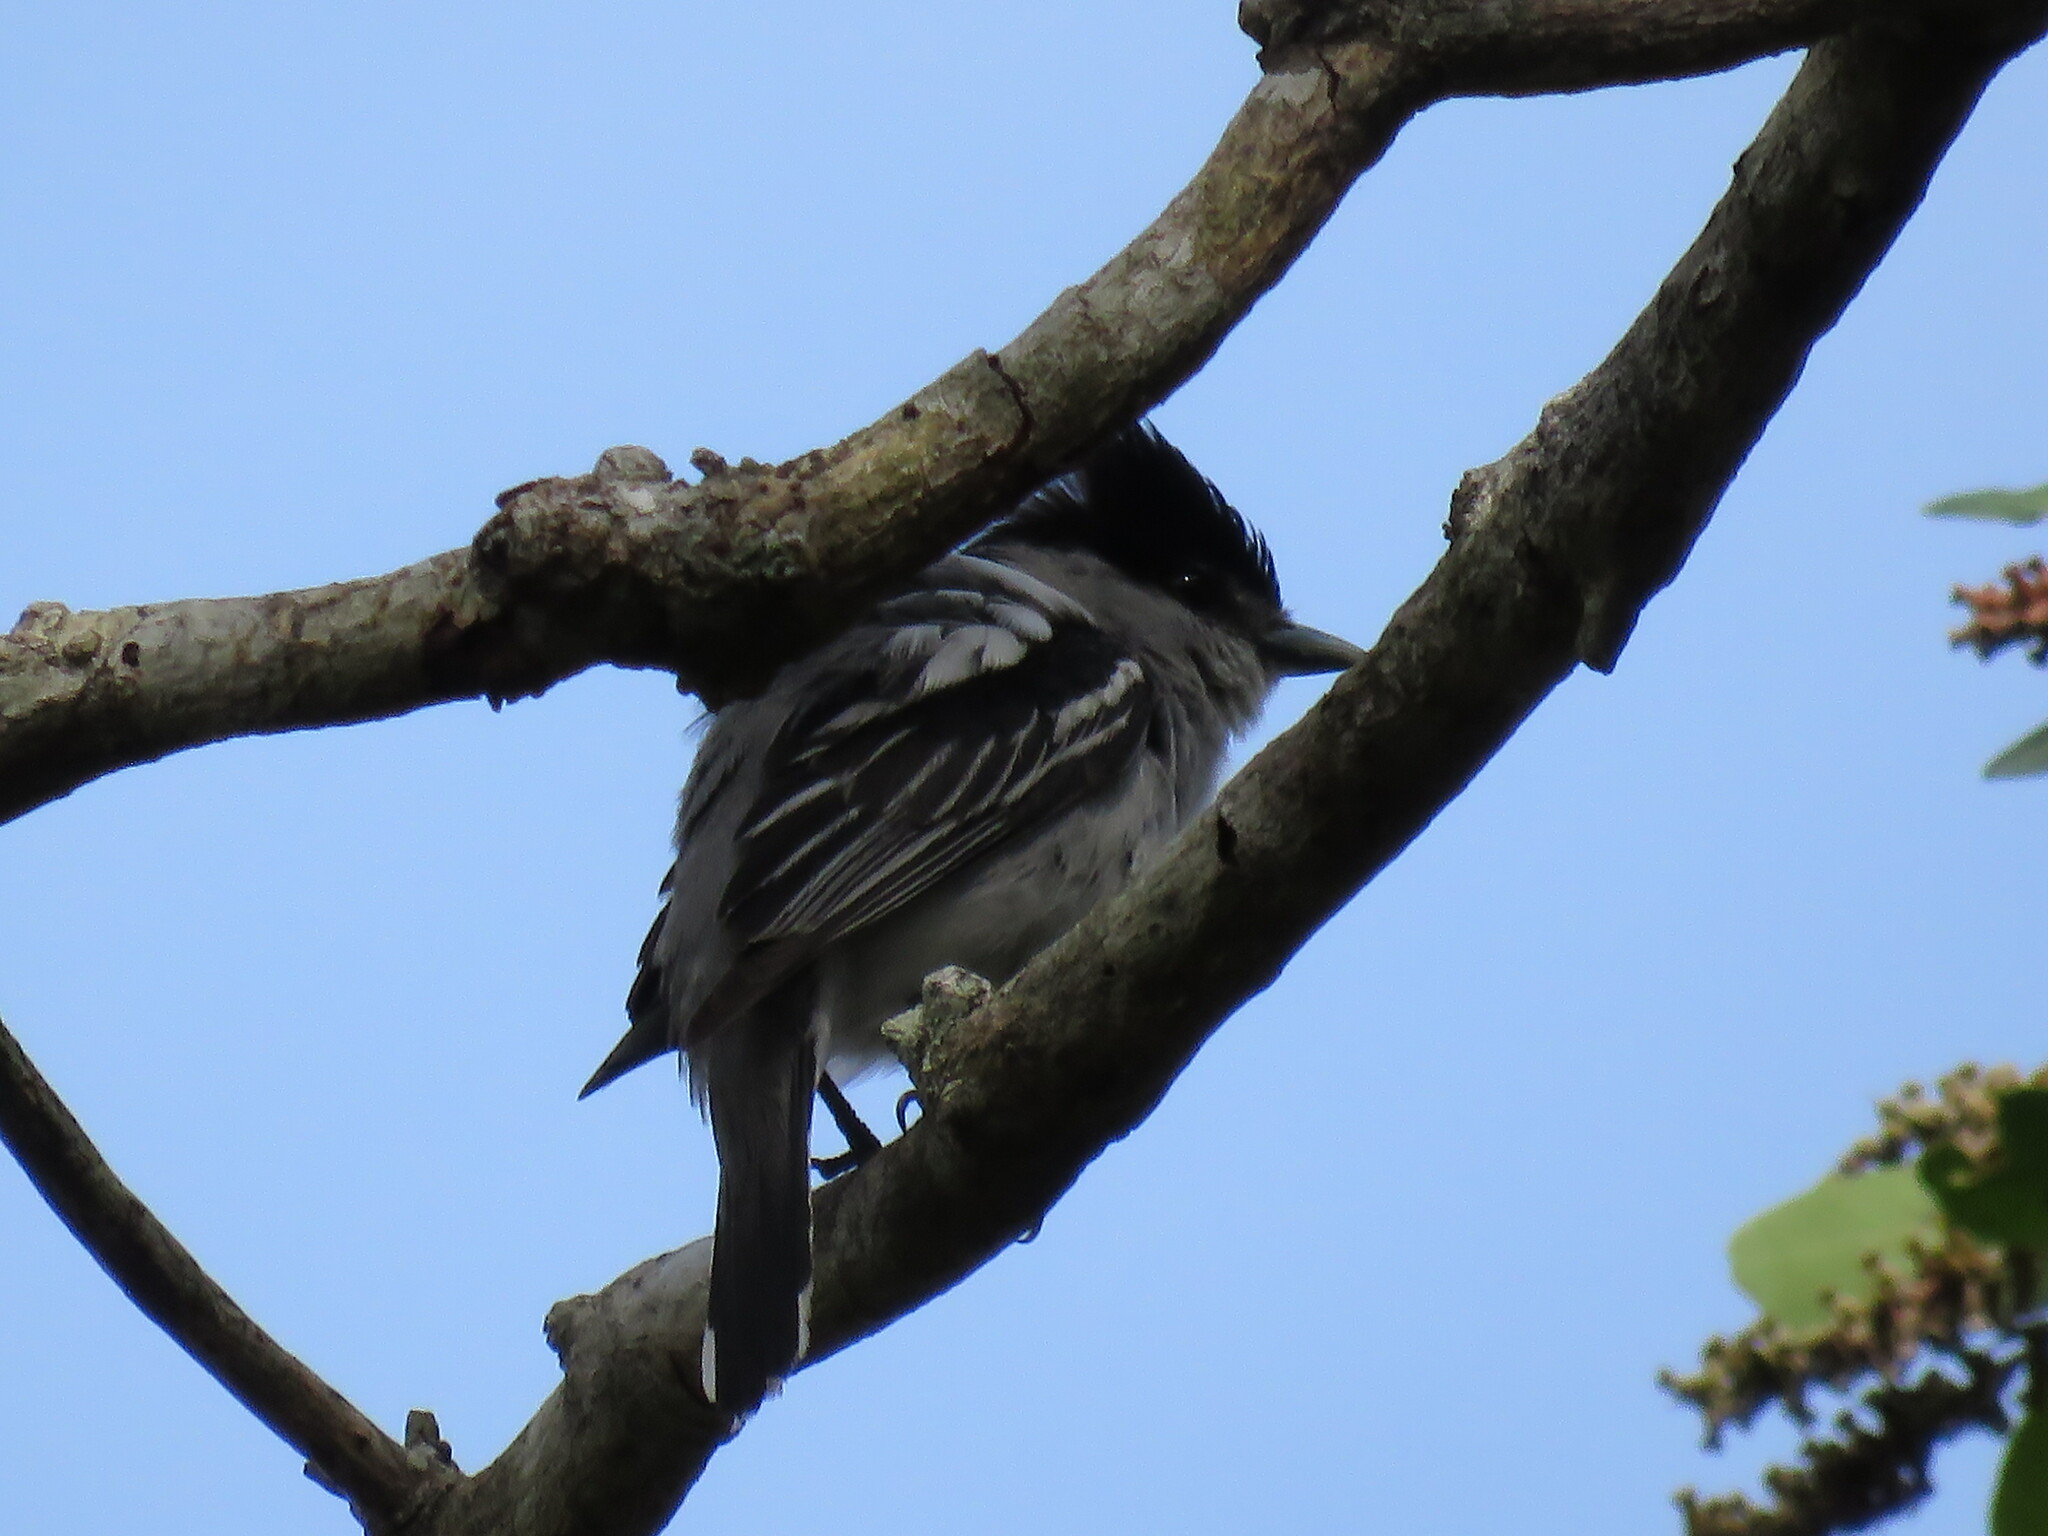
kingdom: Animalia
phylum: Chordata
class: Aves
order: Passeriformes
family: Cotingidae
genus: Pachyramphus
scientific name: Pachyramphus major
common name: Gray-collared becard
